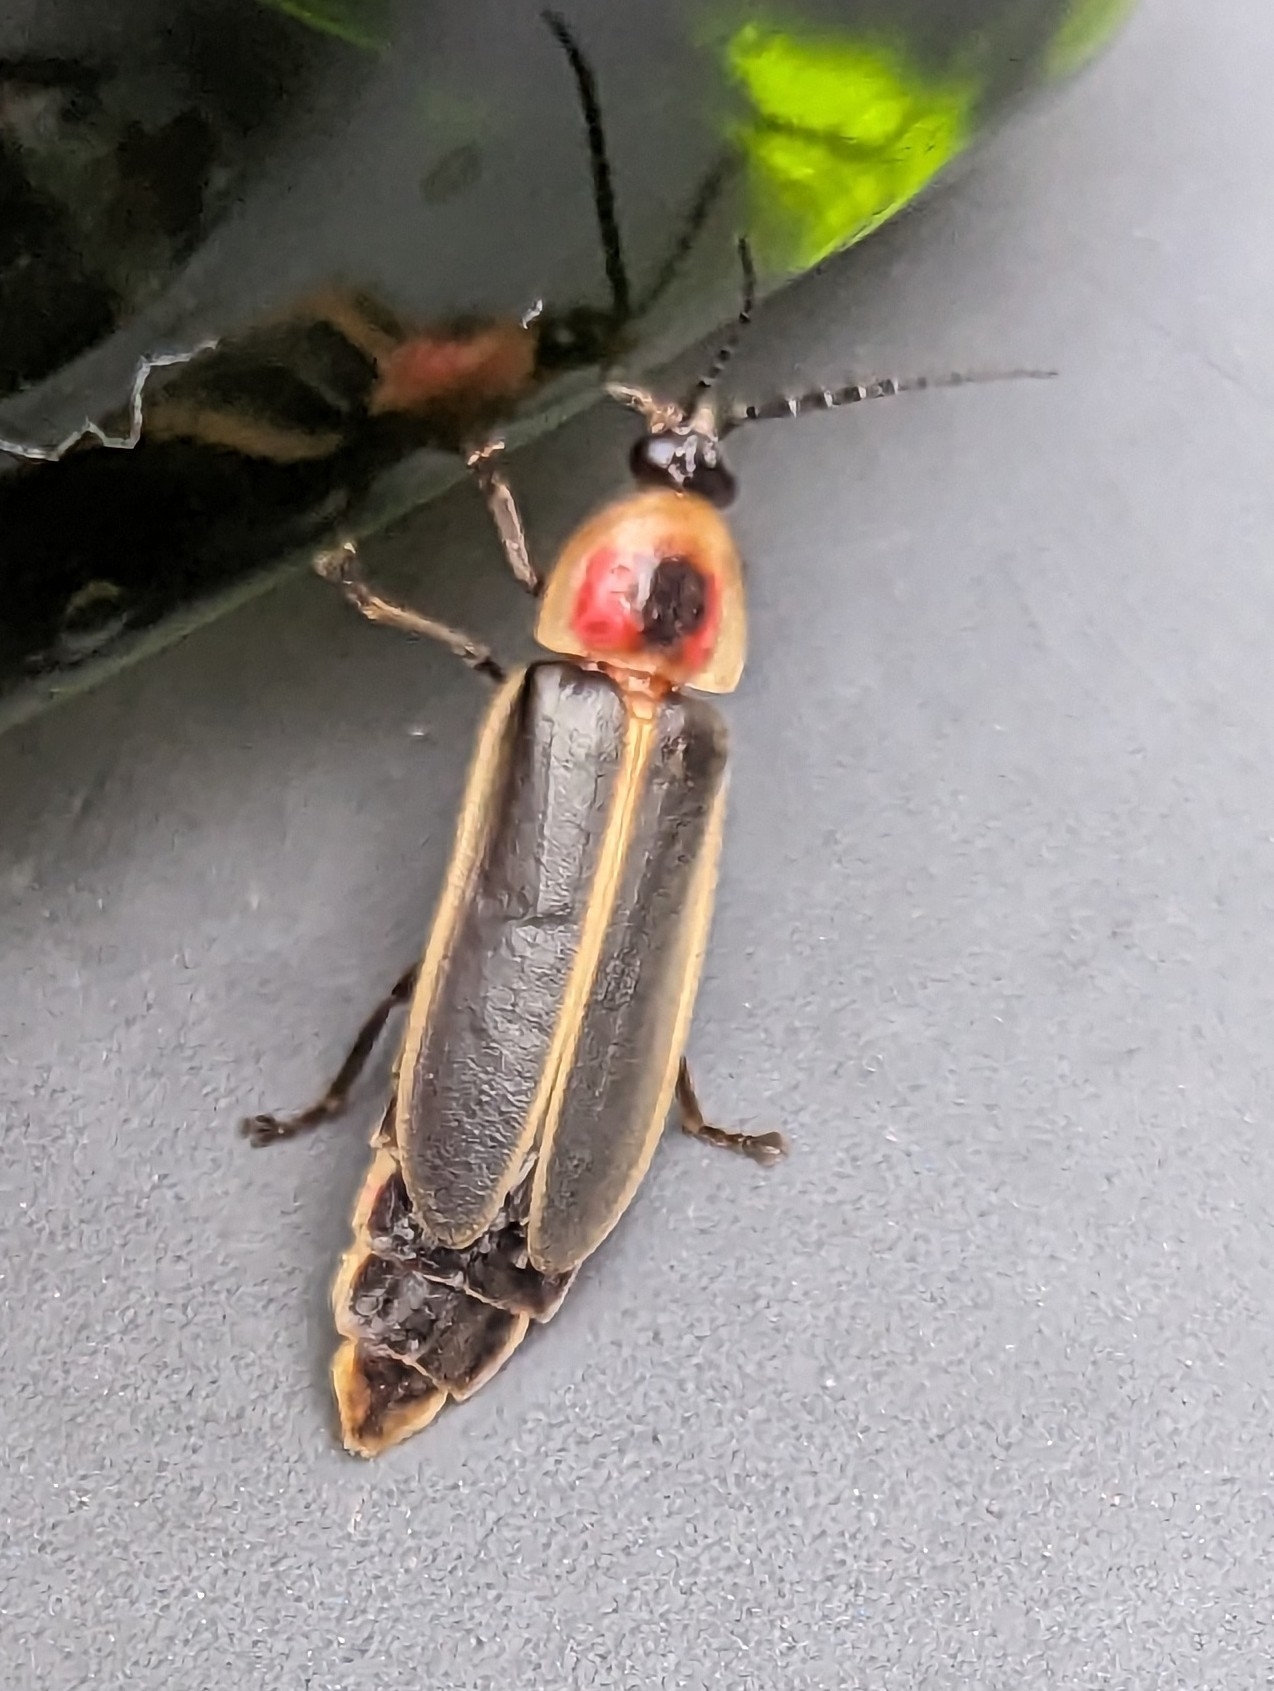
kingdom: Animalia
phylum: Arthropoda
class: Insecta
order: Coleoptera
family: Lampyridae
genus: Photinus
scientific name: Photinus pyralis
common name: Big dipper firefly
